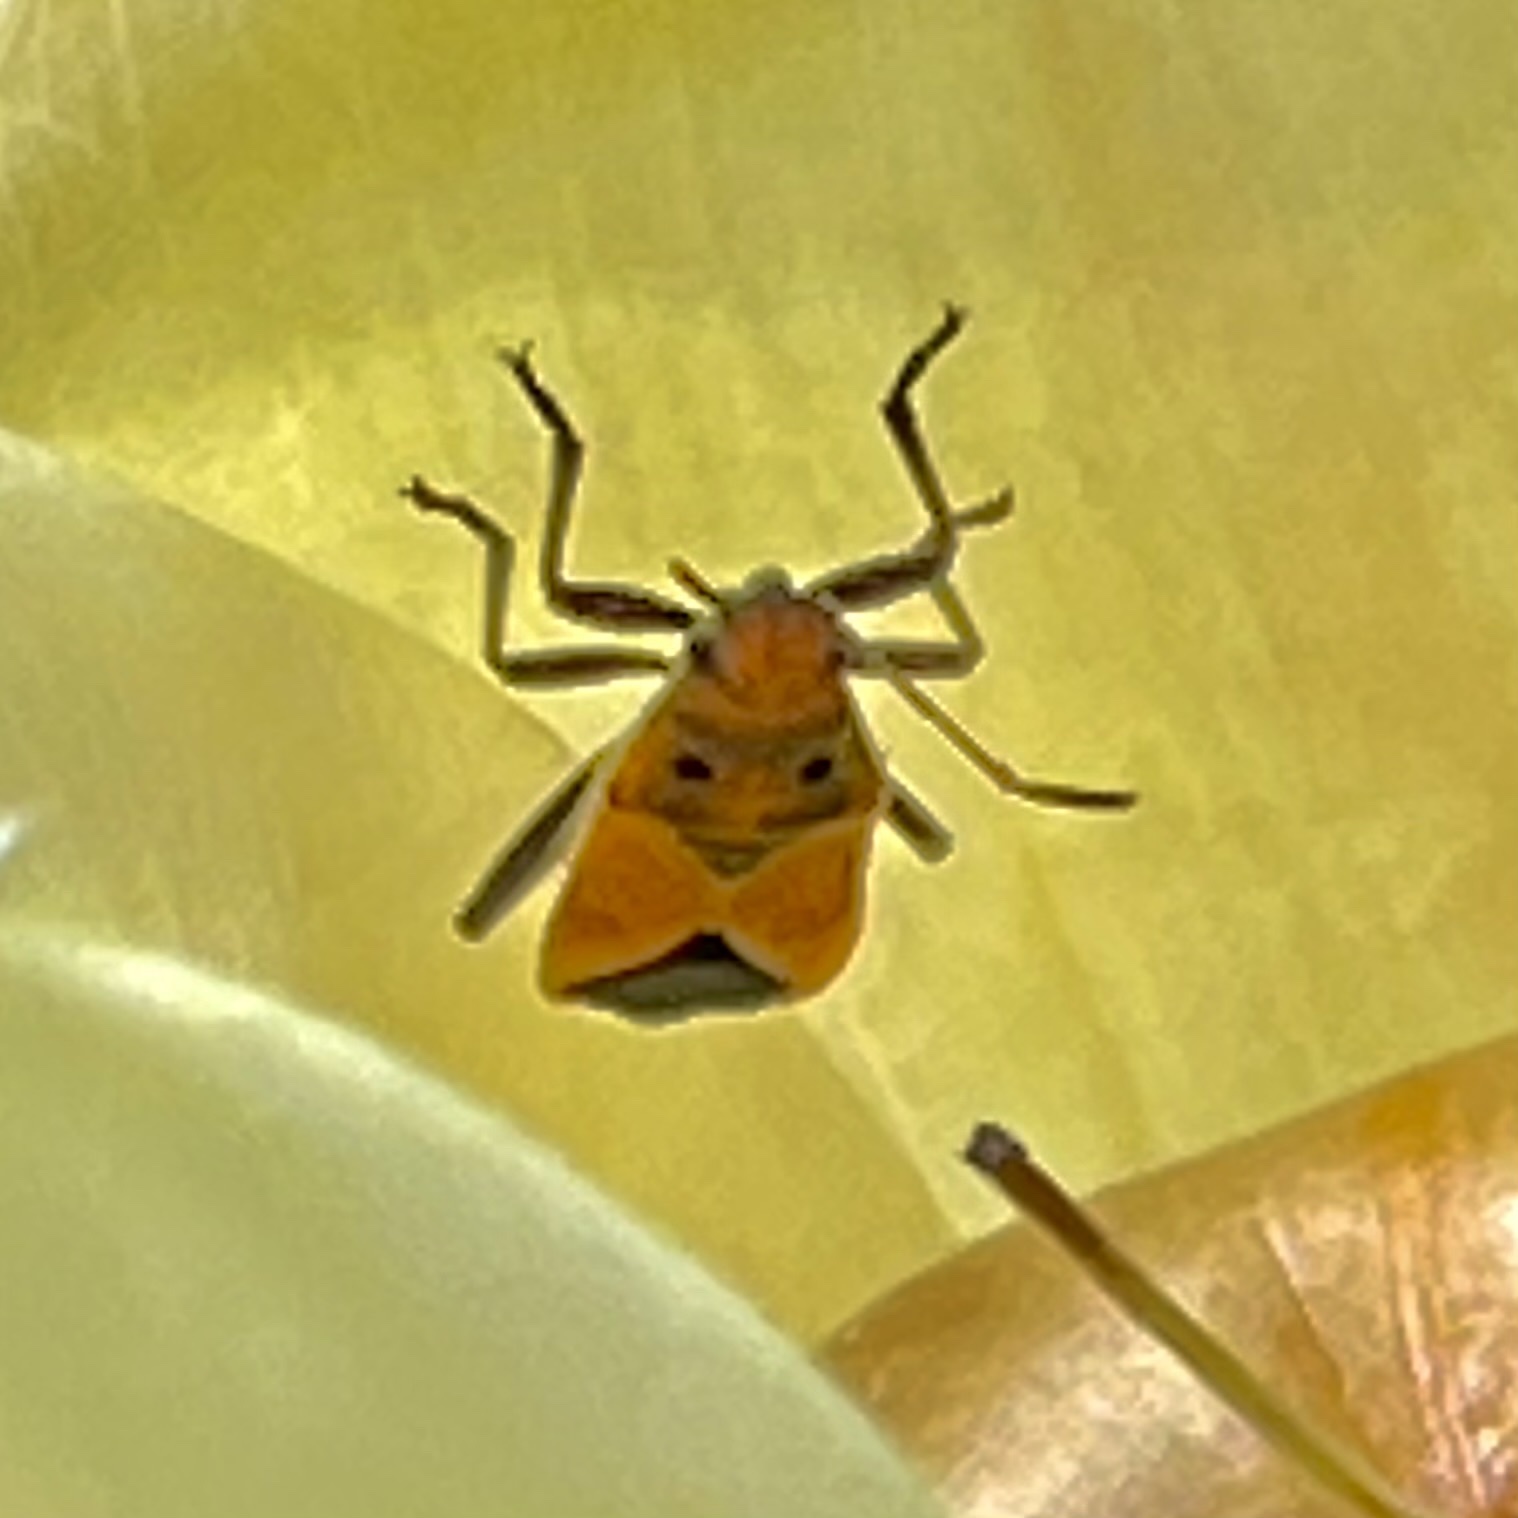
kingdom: Animalia
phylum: Arthropoda
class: Insecta
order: Hemiptera
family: Lygaeidae
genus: Graptostethus
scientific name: Graptostethus servus
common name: Lygaeid bug
